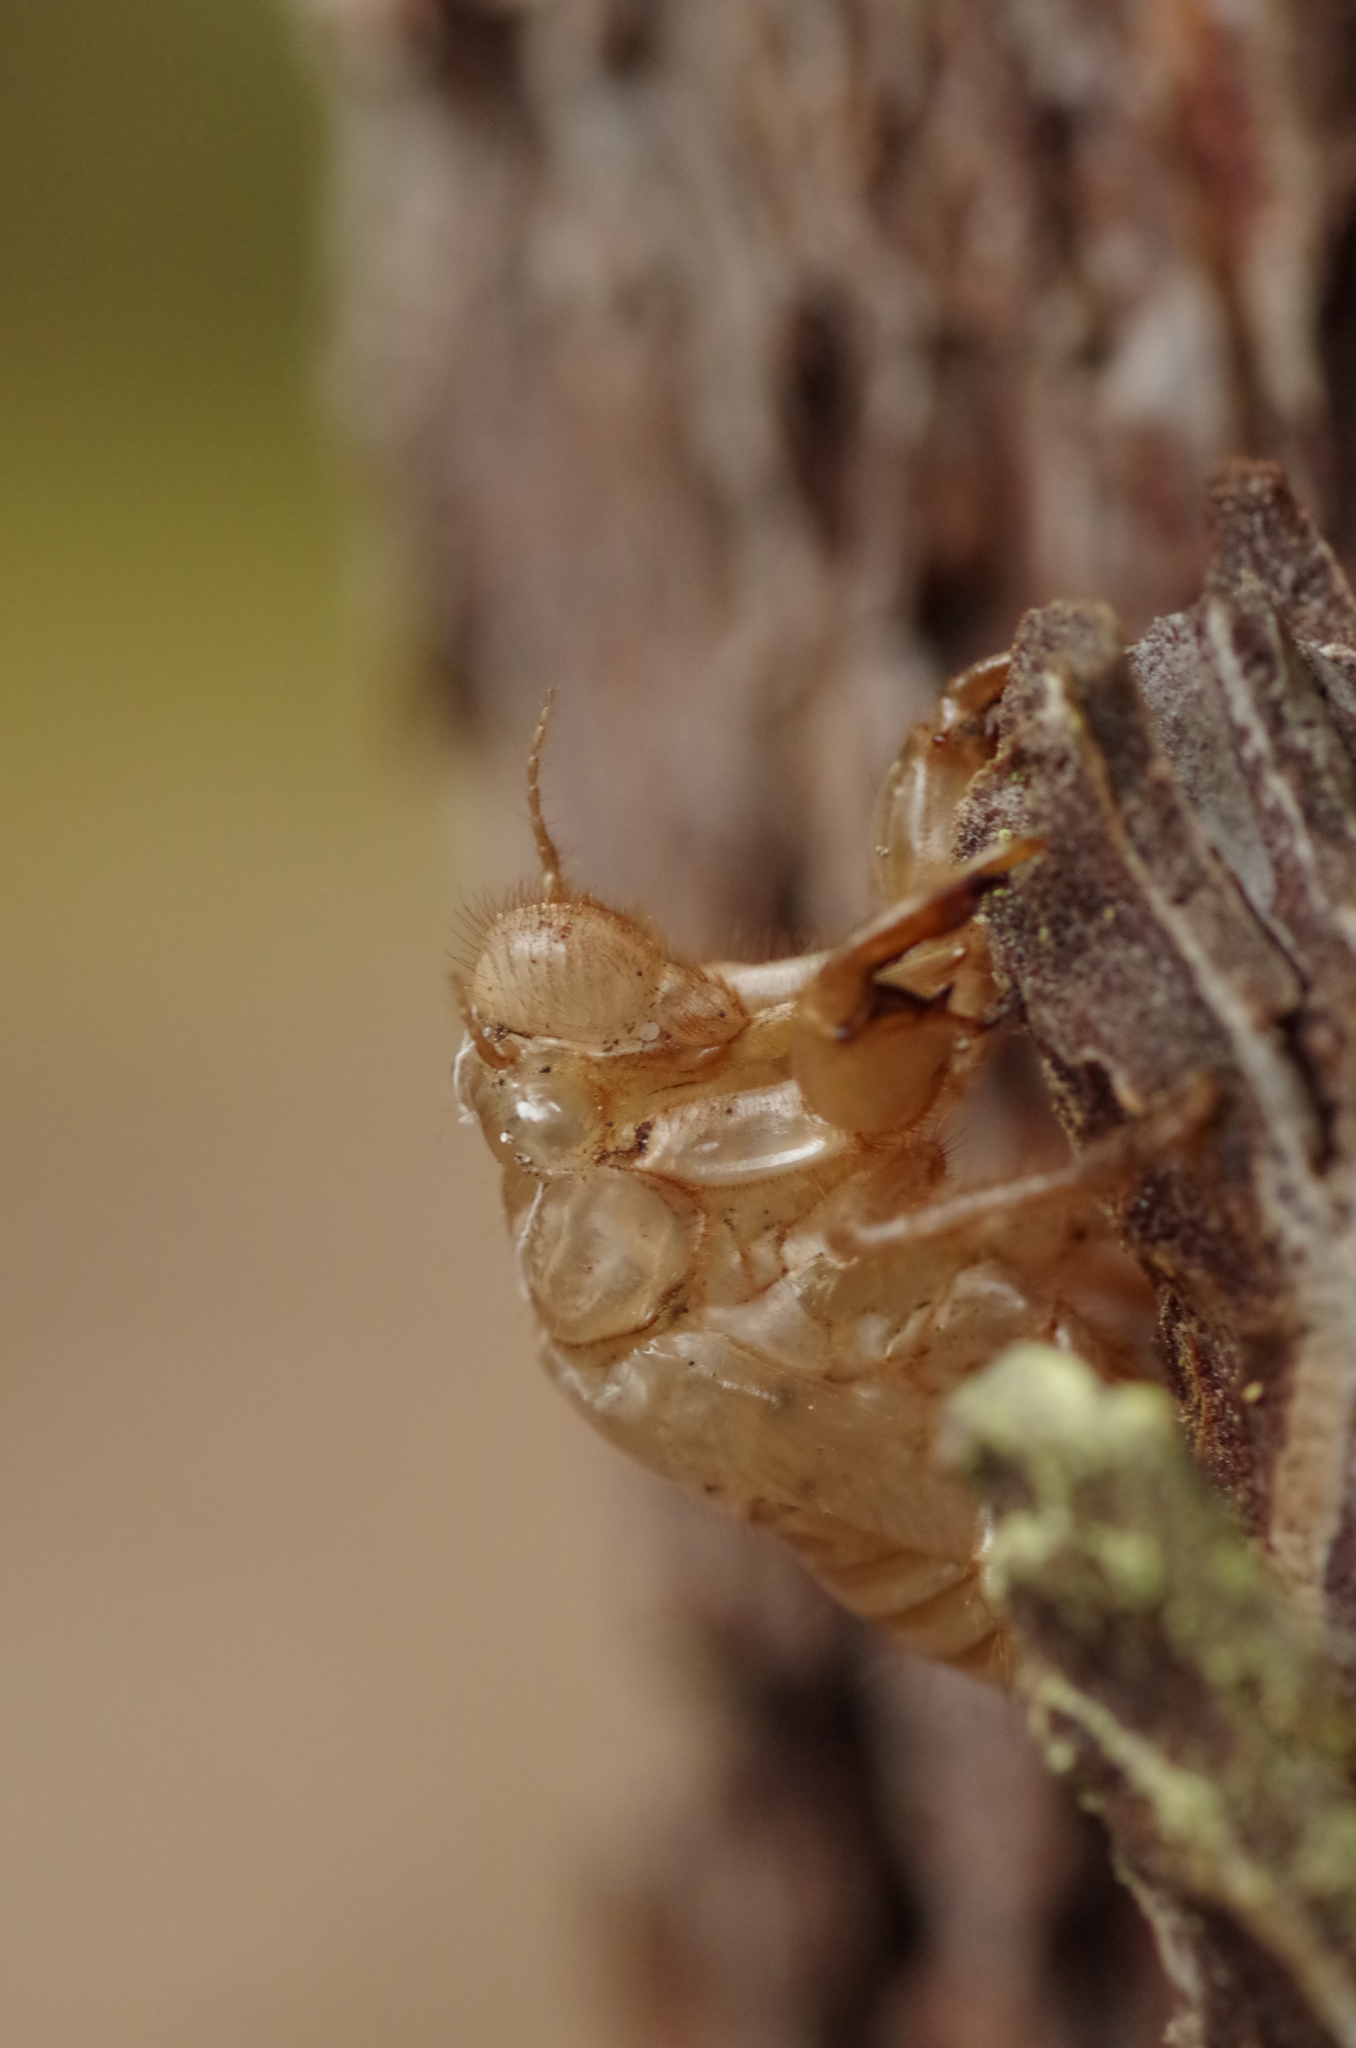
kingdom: Animalia
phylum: Arthropoda
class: Insecta
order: Hemiptera
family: Cicadidae
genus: Cicada
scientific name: Cicada orni
